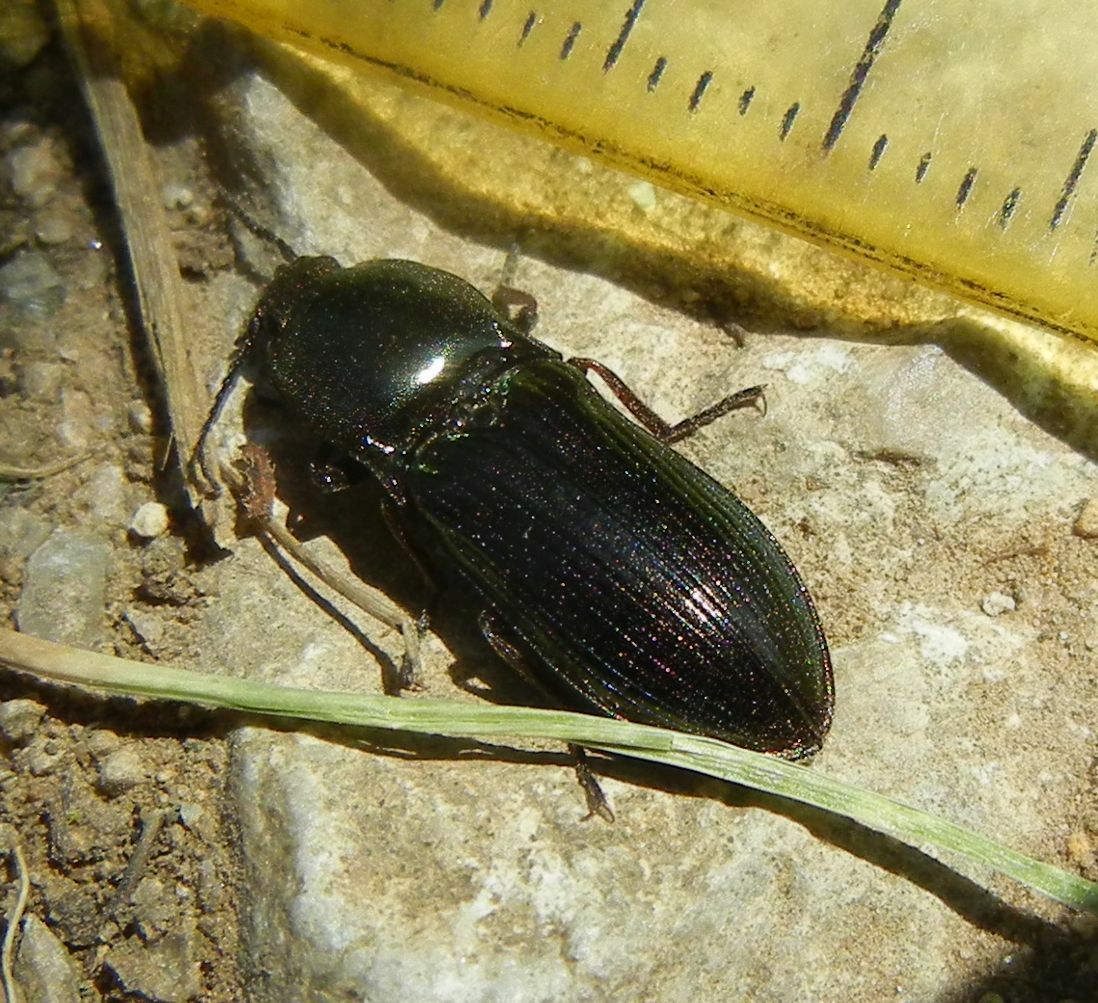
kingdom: Animalia
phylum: Arthropoda
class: Insecta
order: Coleoptera
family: Elateridae
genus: Selatosomus
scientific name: Selatosomus aeneus
